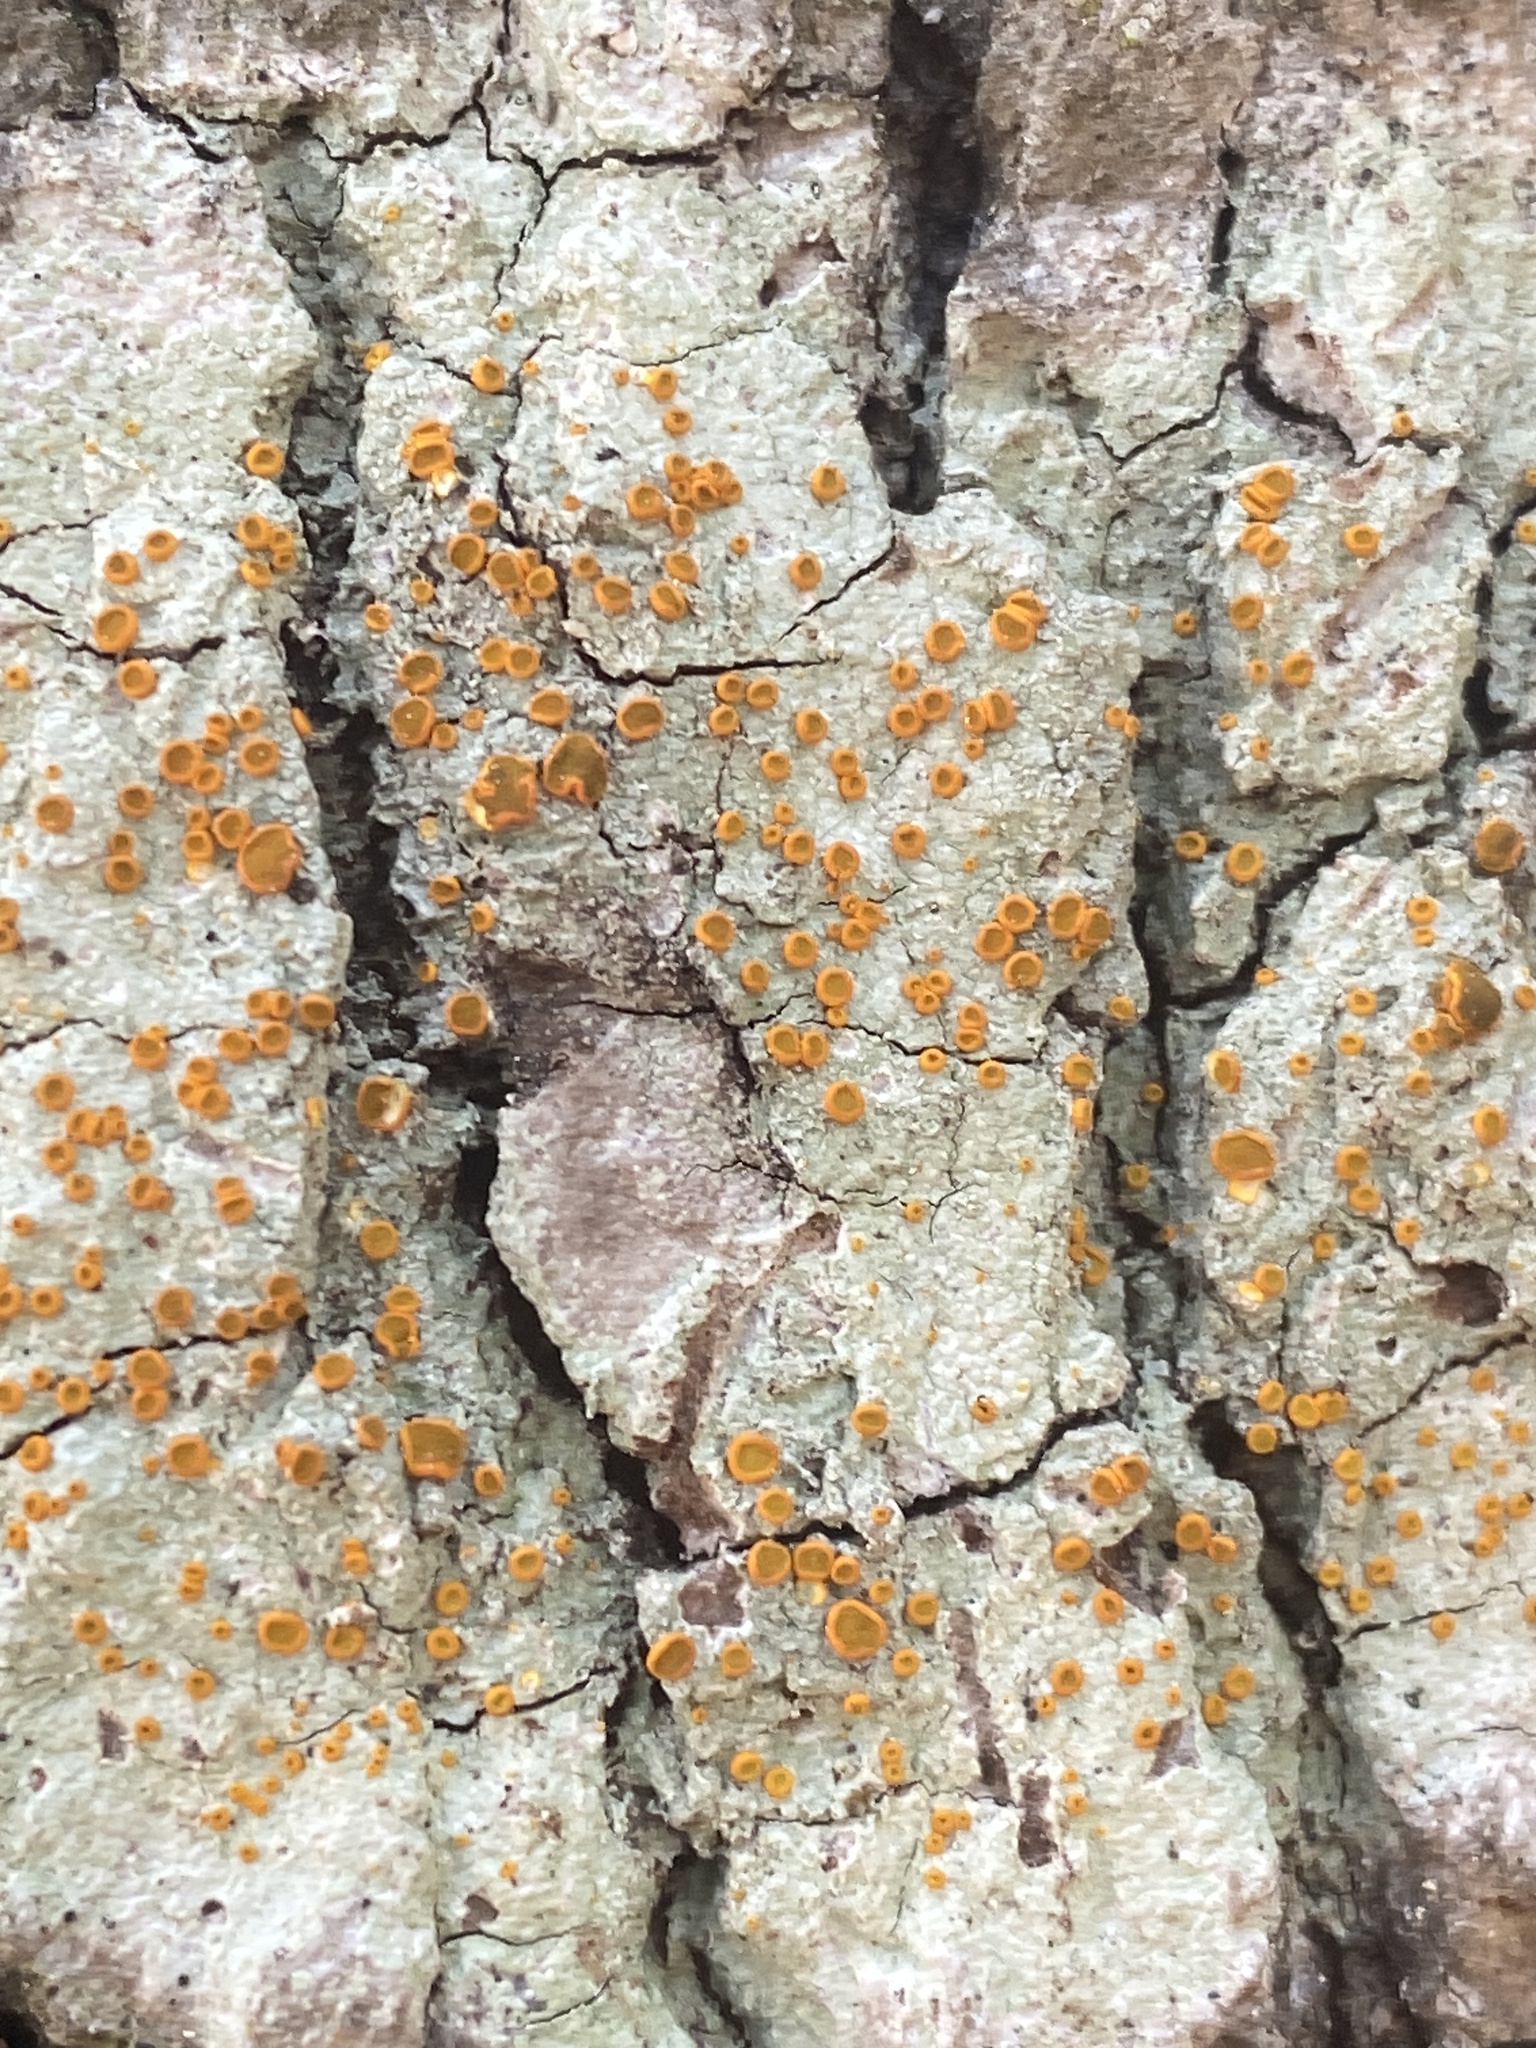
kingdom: Fungi
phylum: Ascomycota
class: Lecanoromycetes
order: Teloschistales
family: Brigantiaeaceae
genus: Brigantiaea
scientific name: Brigantiaea leucoxantha
